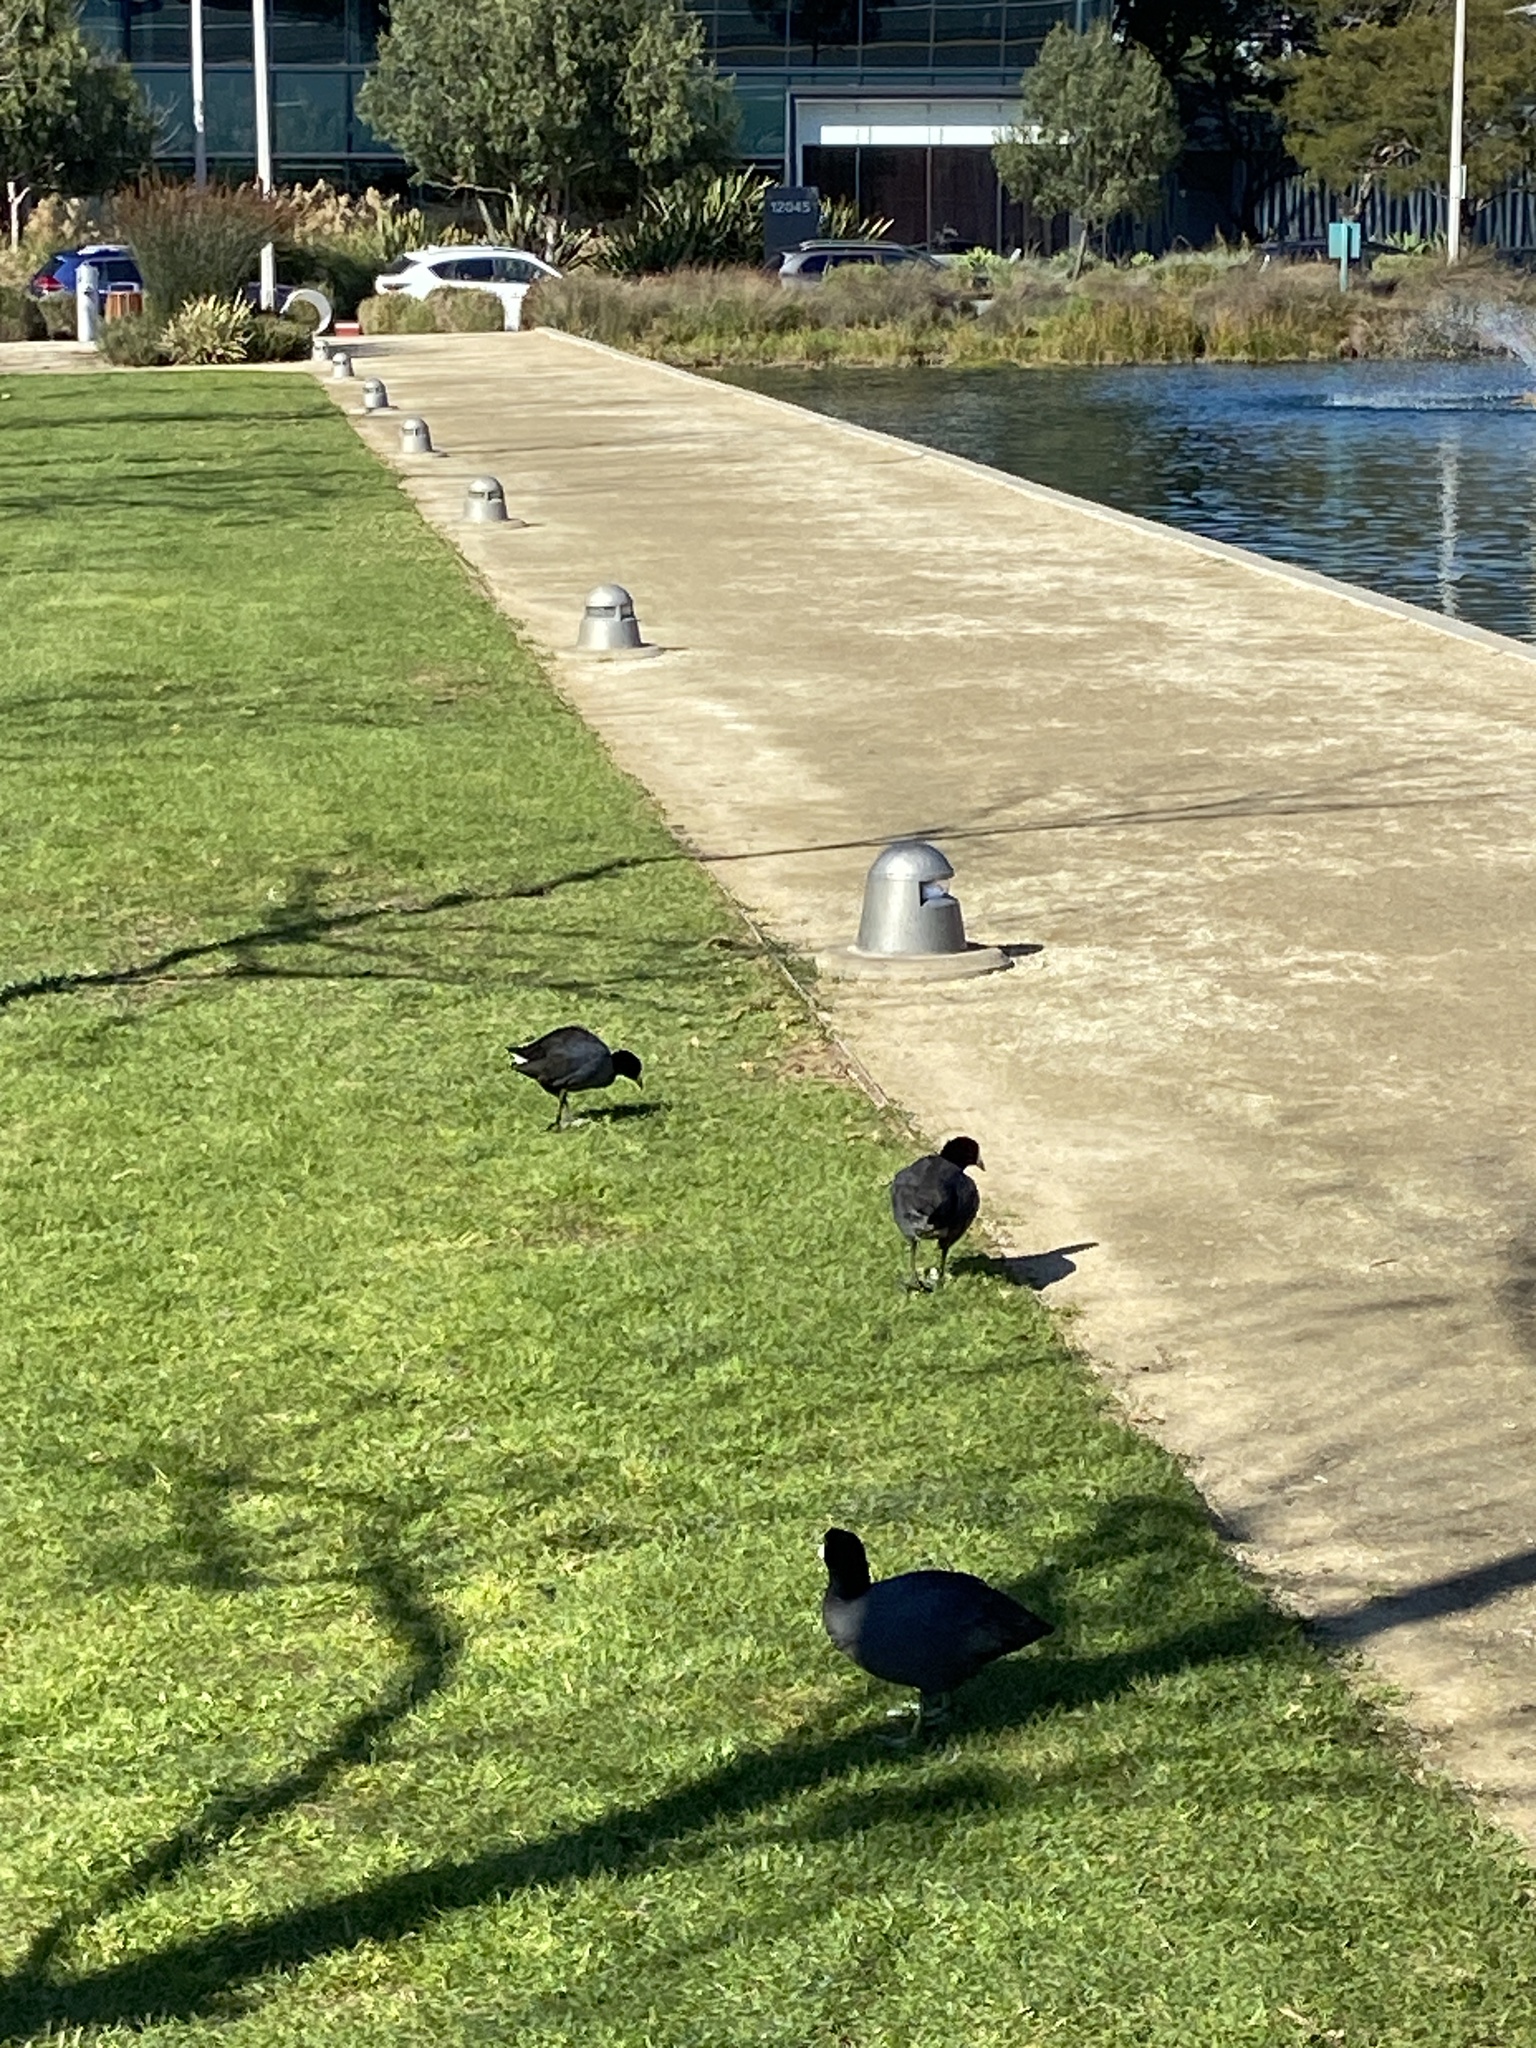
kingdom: Animalia
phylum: Chordata
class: Aves
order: Gruiformes
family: Rallidae
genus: Fulica
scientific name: Fulica americana
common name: American coot
